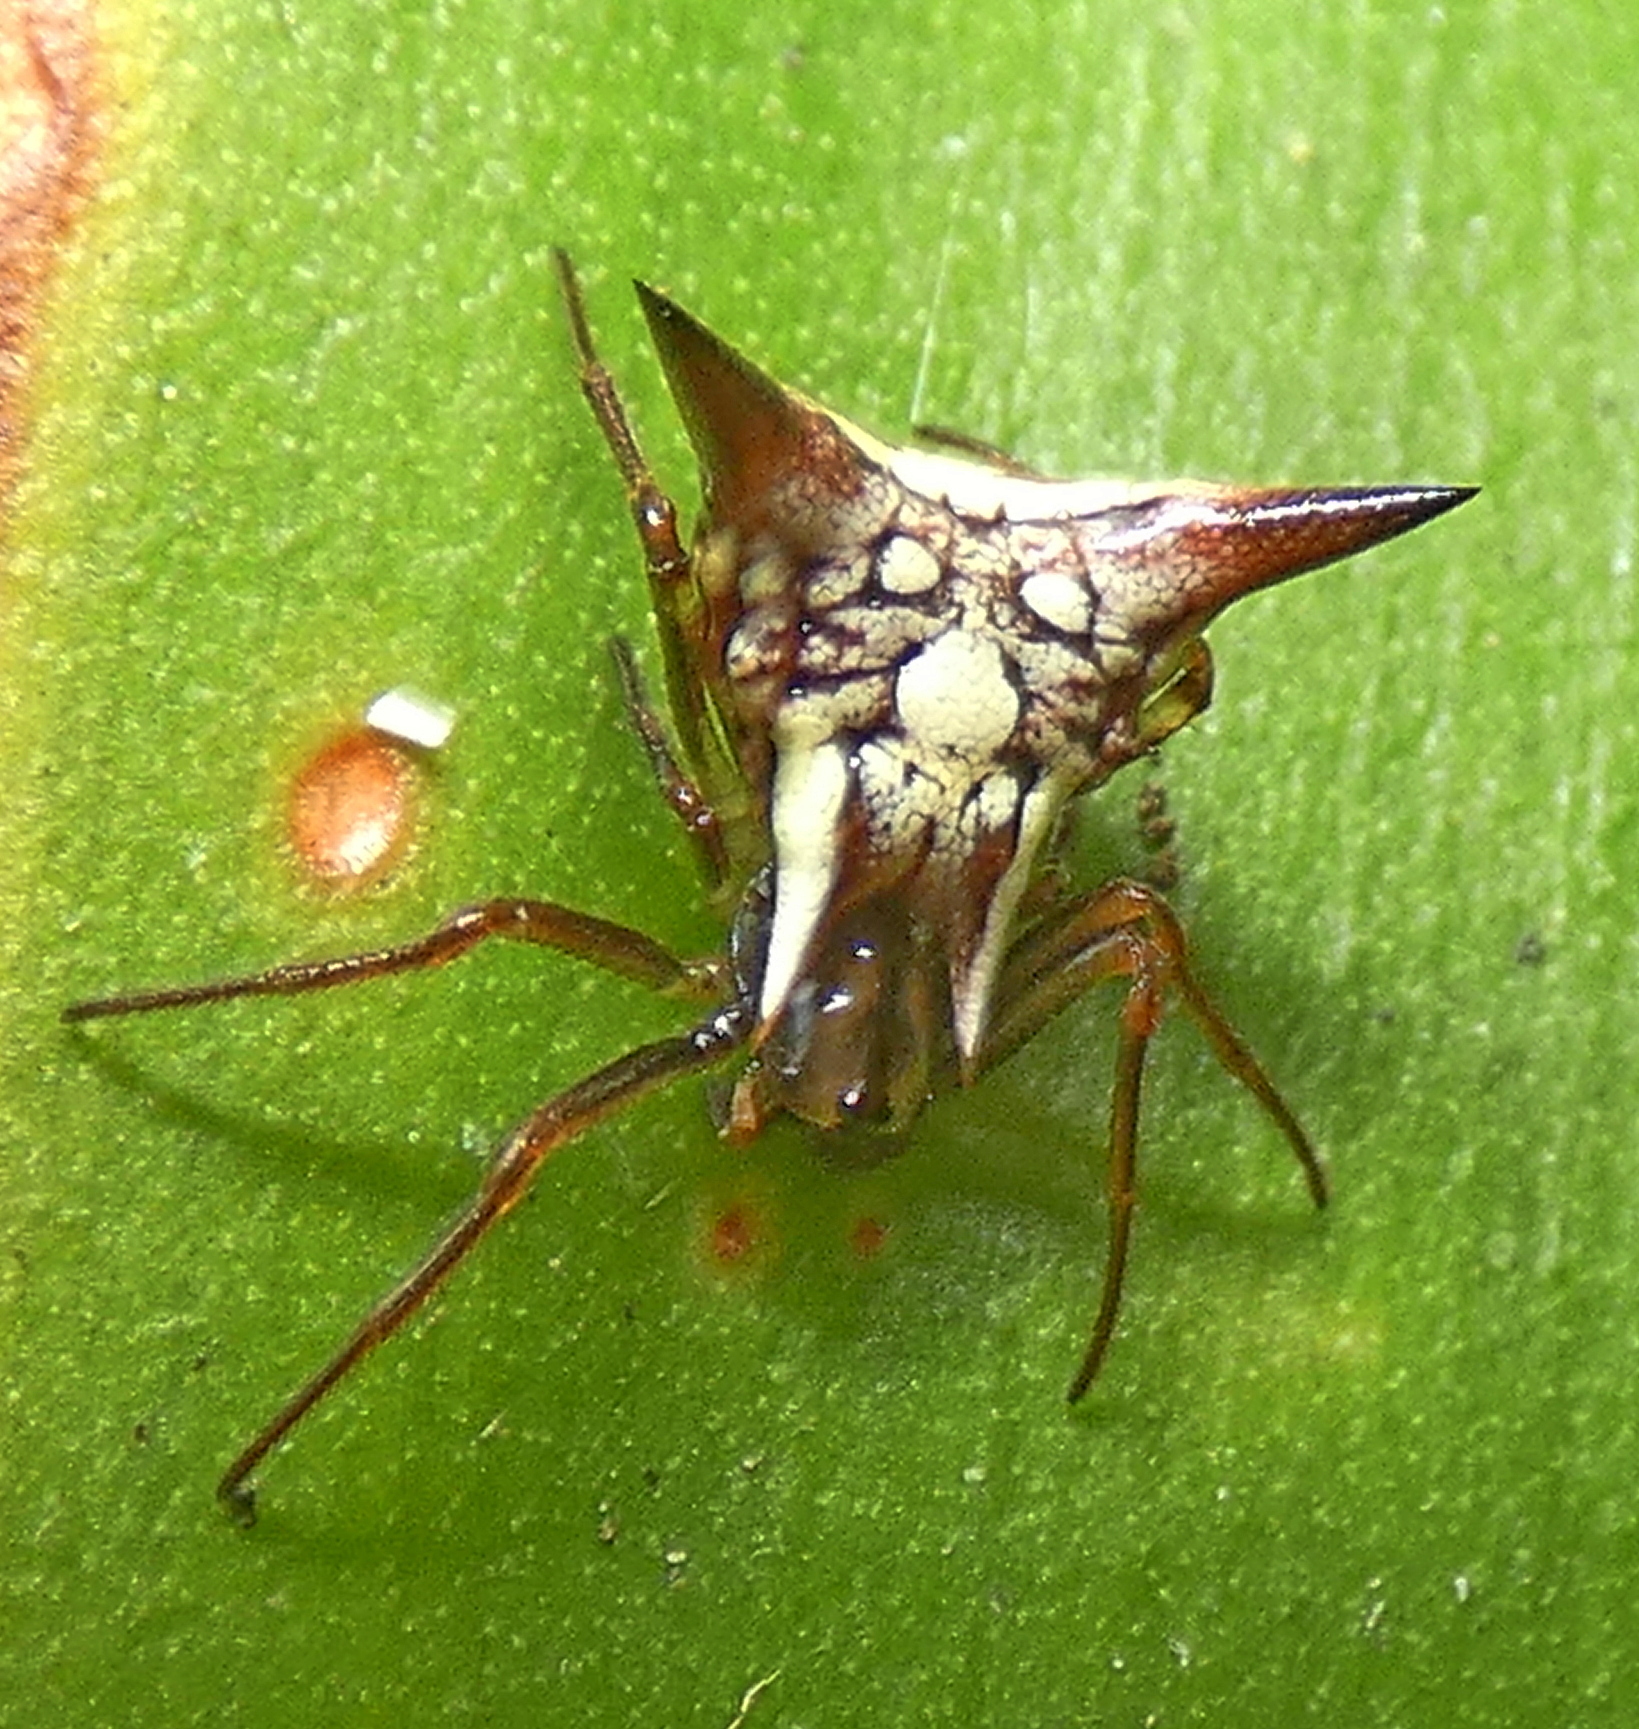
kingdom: Animalia
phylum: Arthropoda
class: Arachnida
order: Araneae
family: Araneidae
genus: Micrathena
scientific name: Micrathena evansi
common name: Orb weavers
